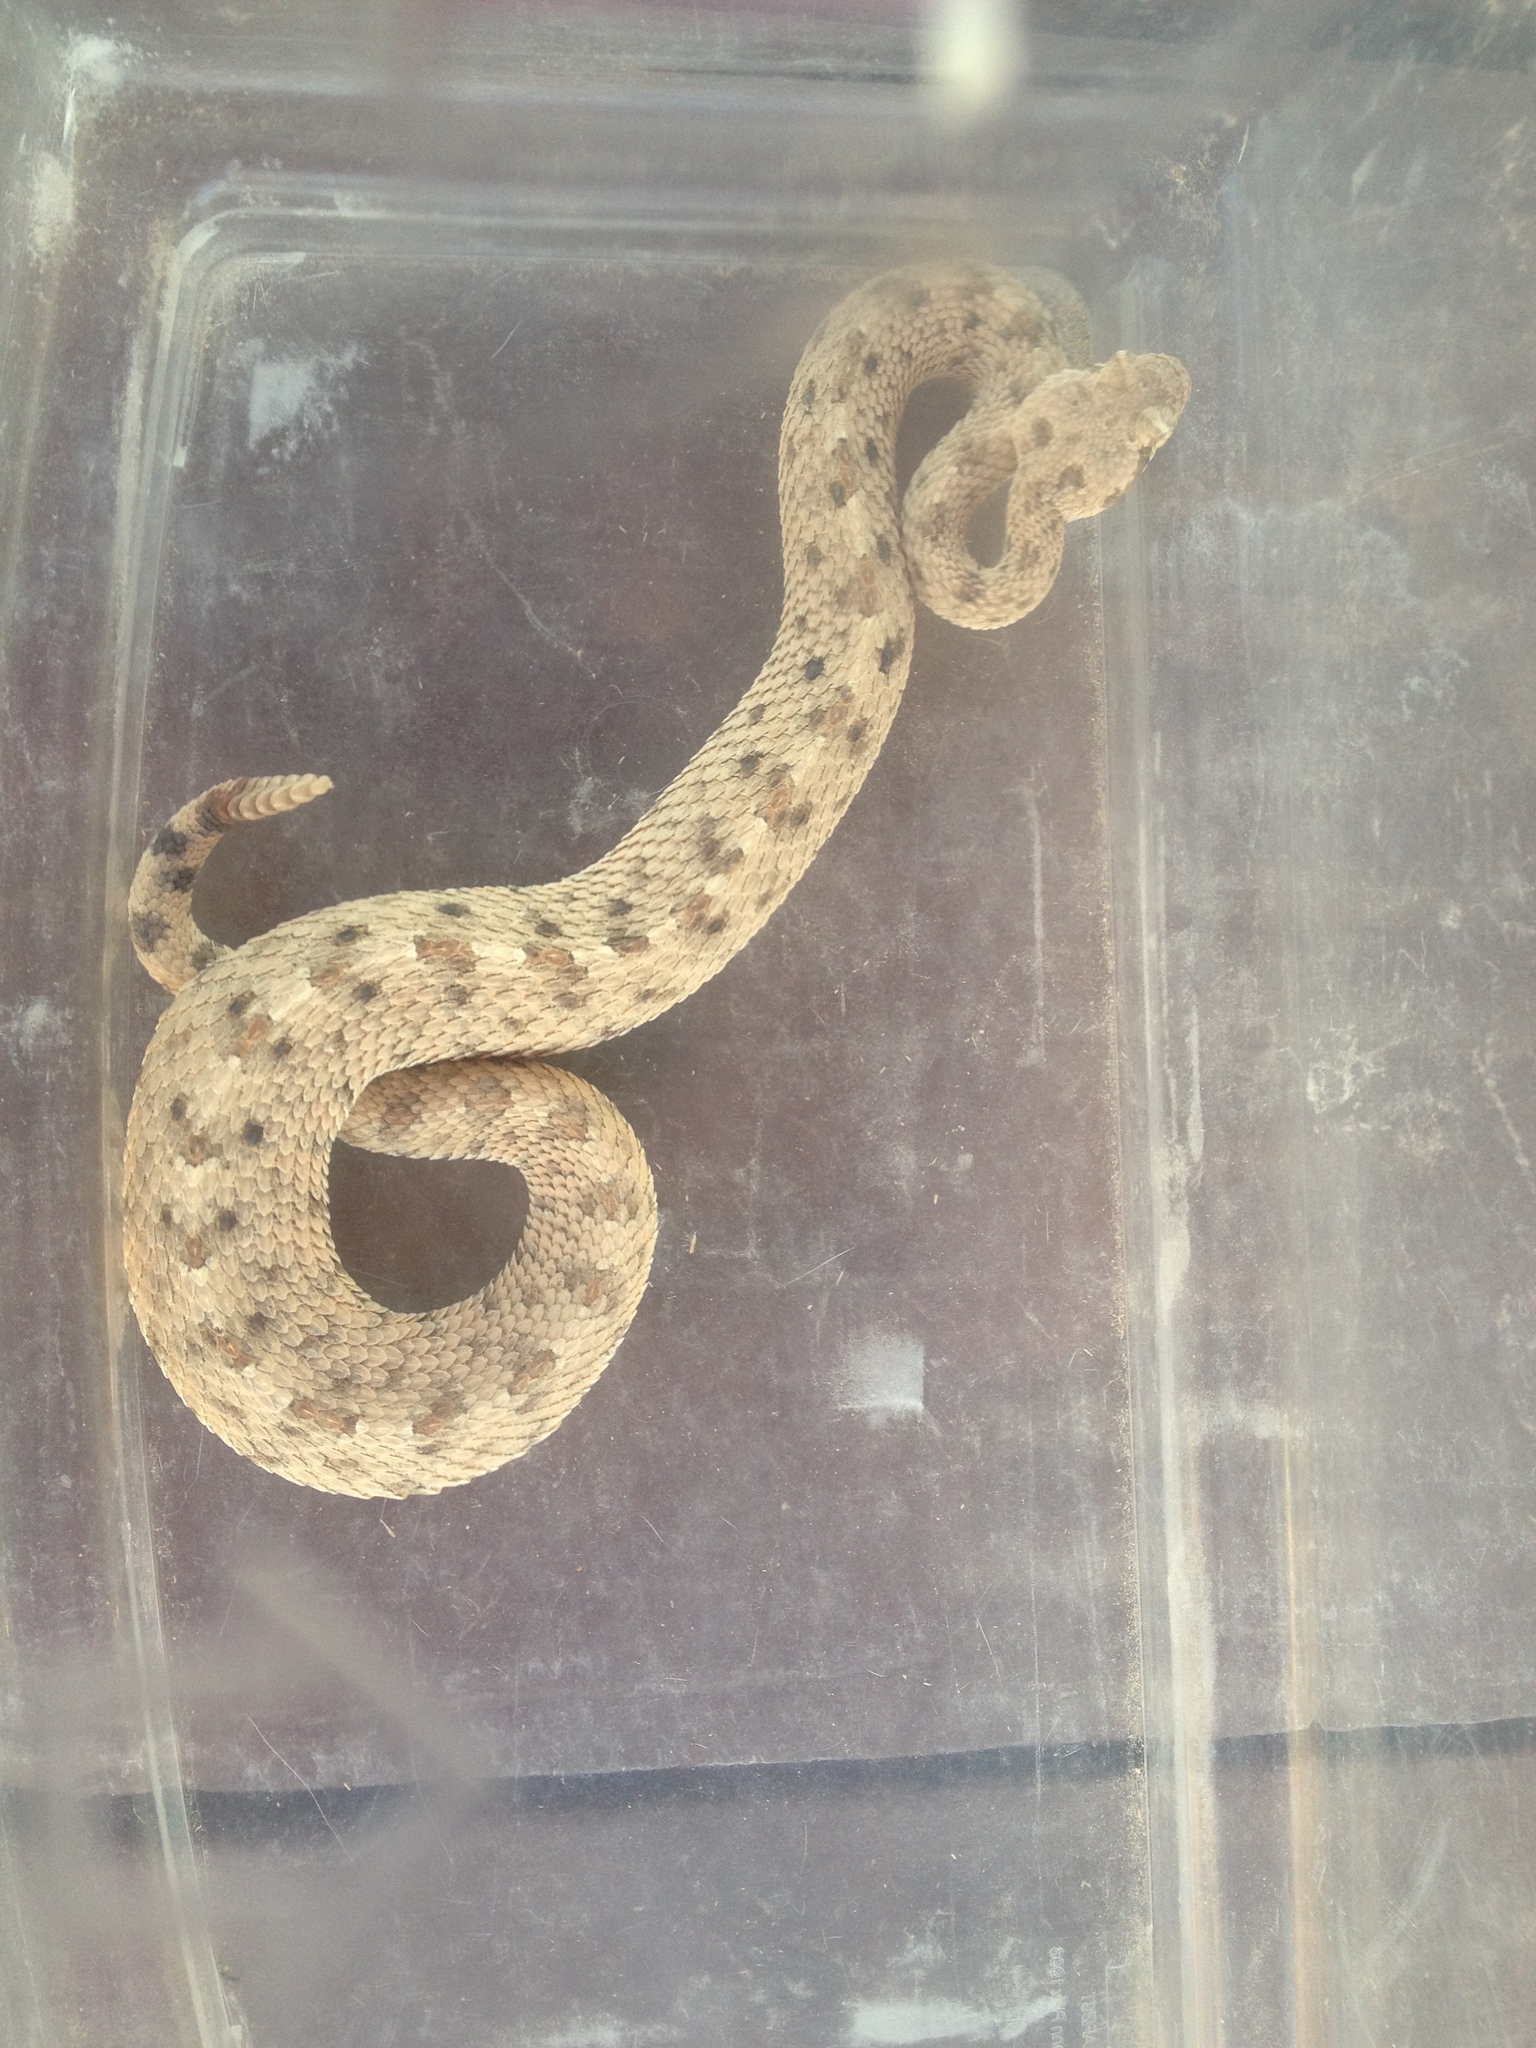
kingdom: Animalia
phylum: Chordata
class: Squamata
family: Viperidae
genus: Crotalus
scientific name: Crotalus cerastes
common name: Sidewinder
